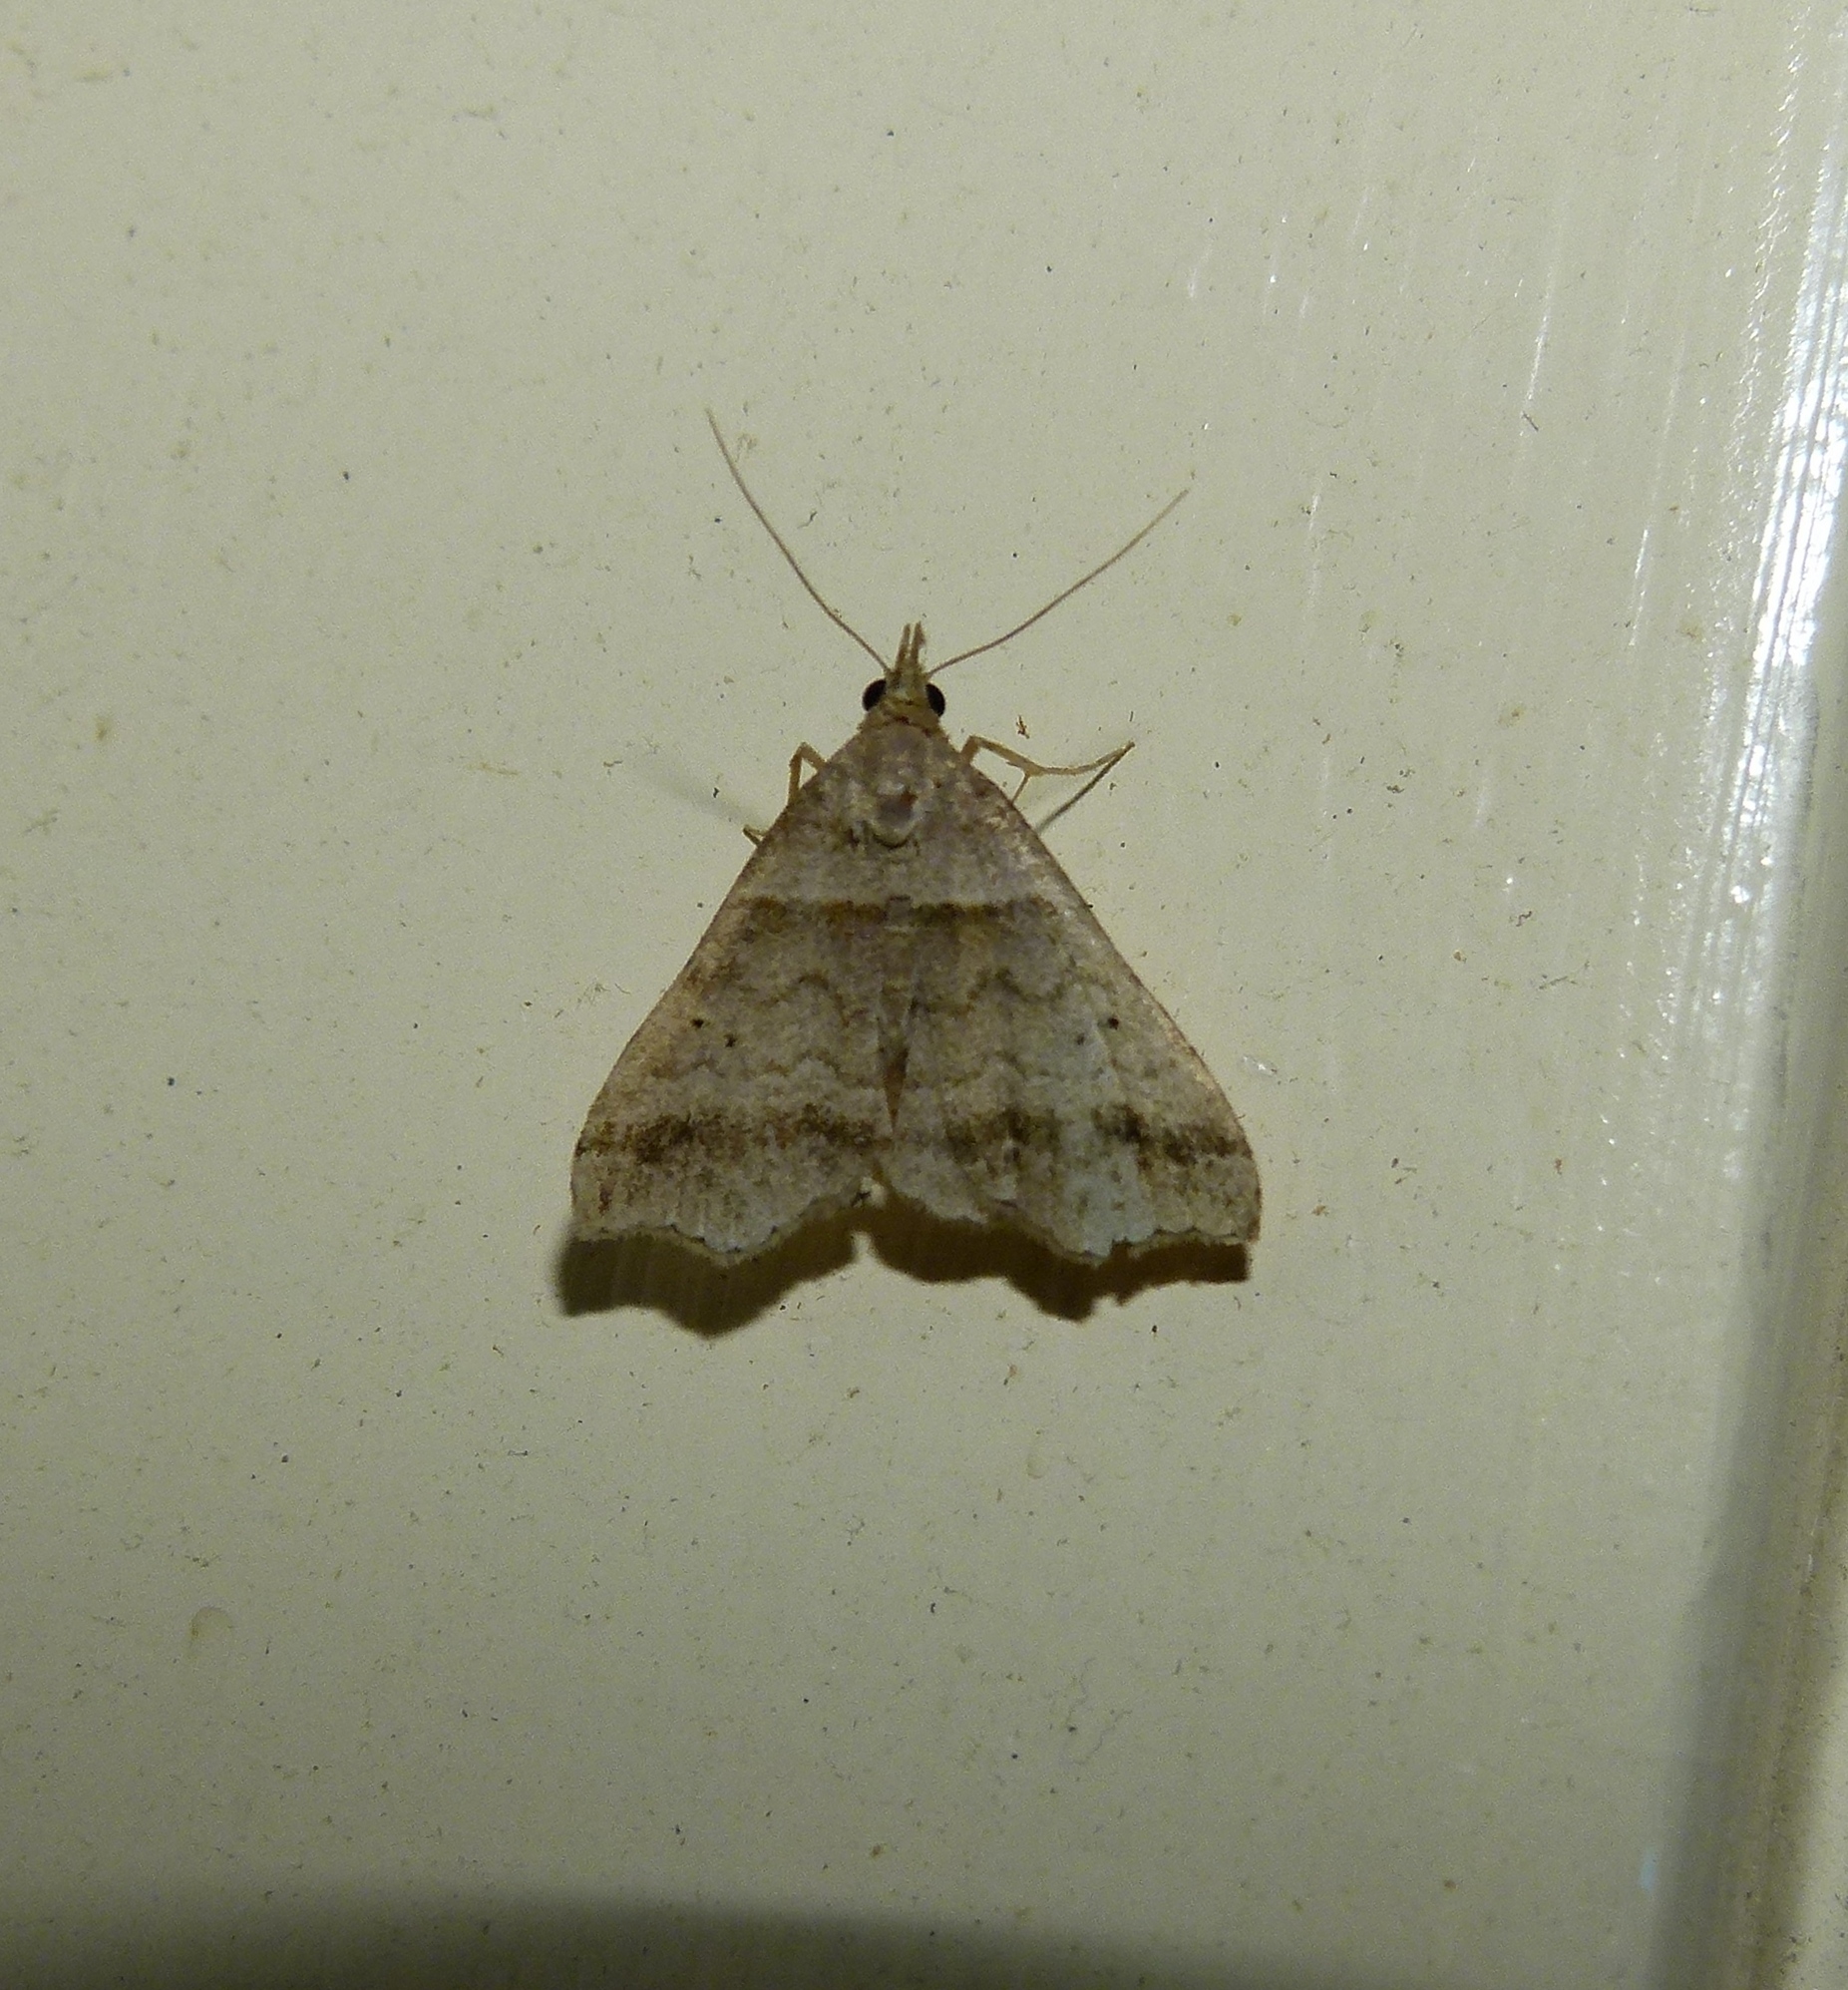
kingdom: Animalia
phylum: Arthropoda
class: Insecta
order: Lepidoptera
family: Erebidae
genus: Phaeolita
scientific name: Phaeolita pyramusalis
